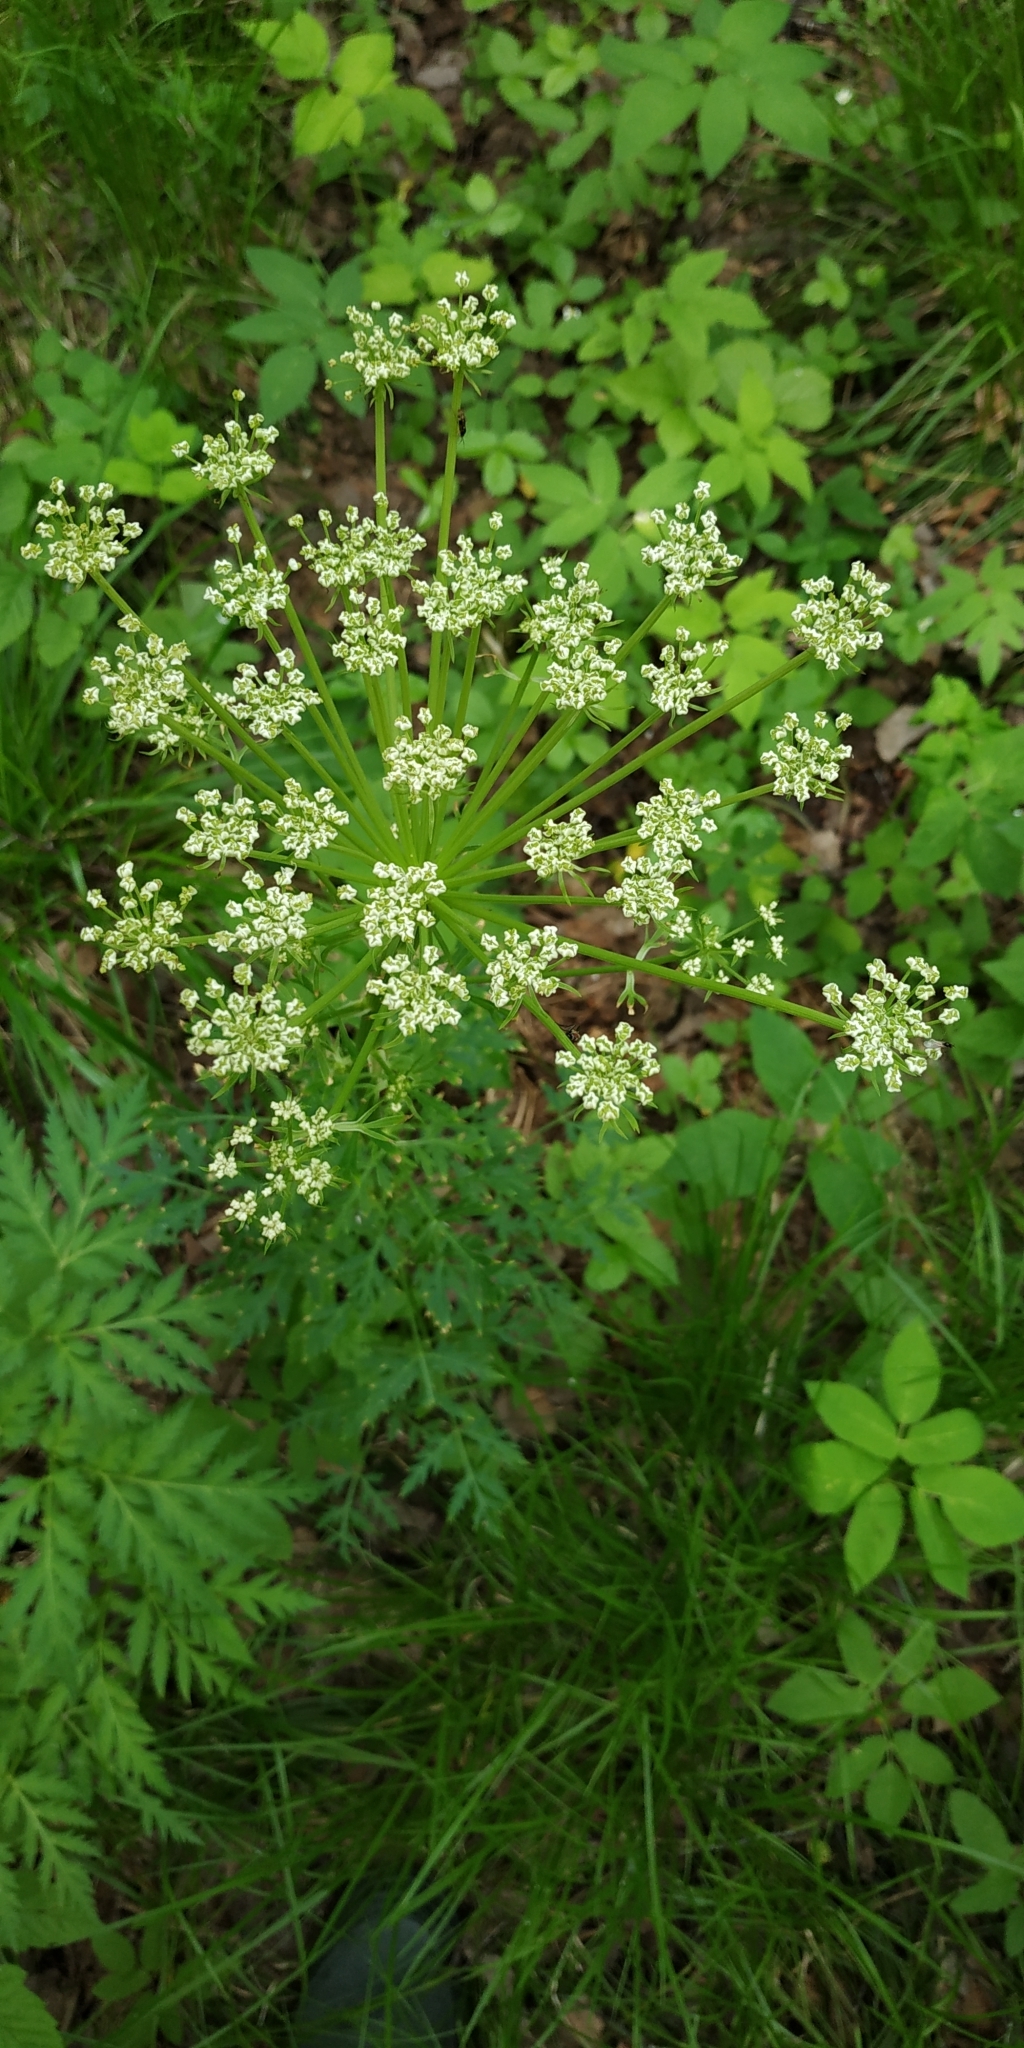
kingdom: Plantae
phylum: Tracheophyta
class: Magnoliopsida
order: Apiales
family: Apiaceae
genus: Pleurospermum
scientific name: Pleurospermum uralense
